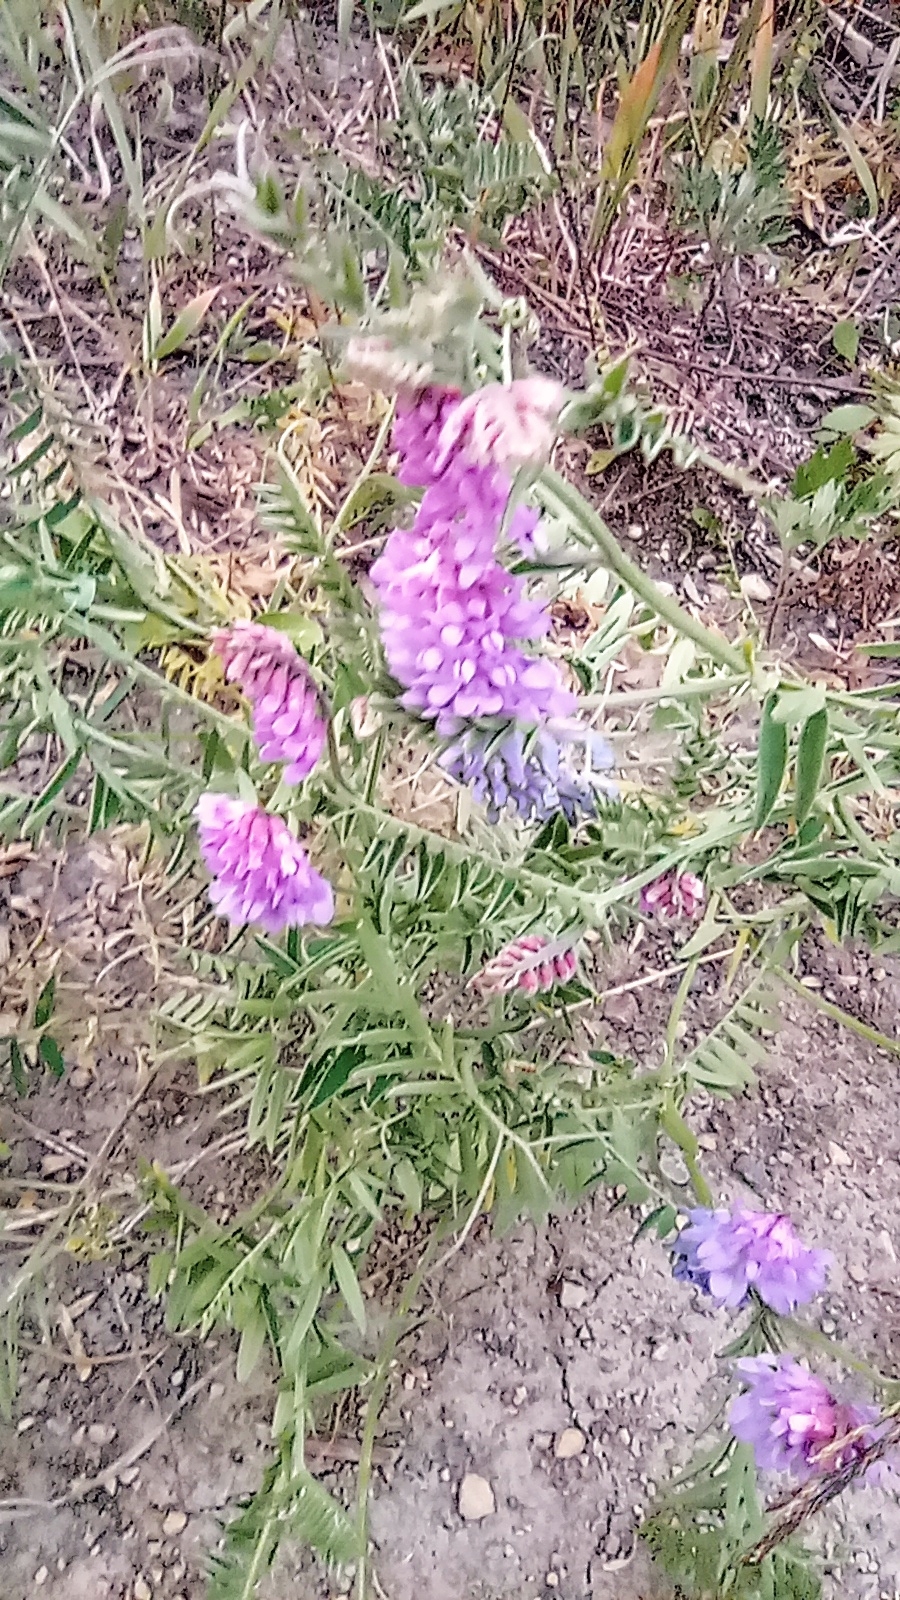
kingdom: Plantae
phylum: Tracheophyta
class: Magnoliopsida
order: Fabales
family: Fabaceae
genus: Vicia
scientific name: Vicia cracca
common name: Bird vetch
